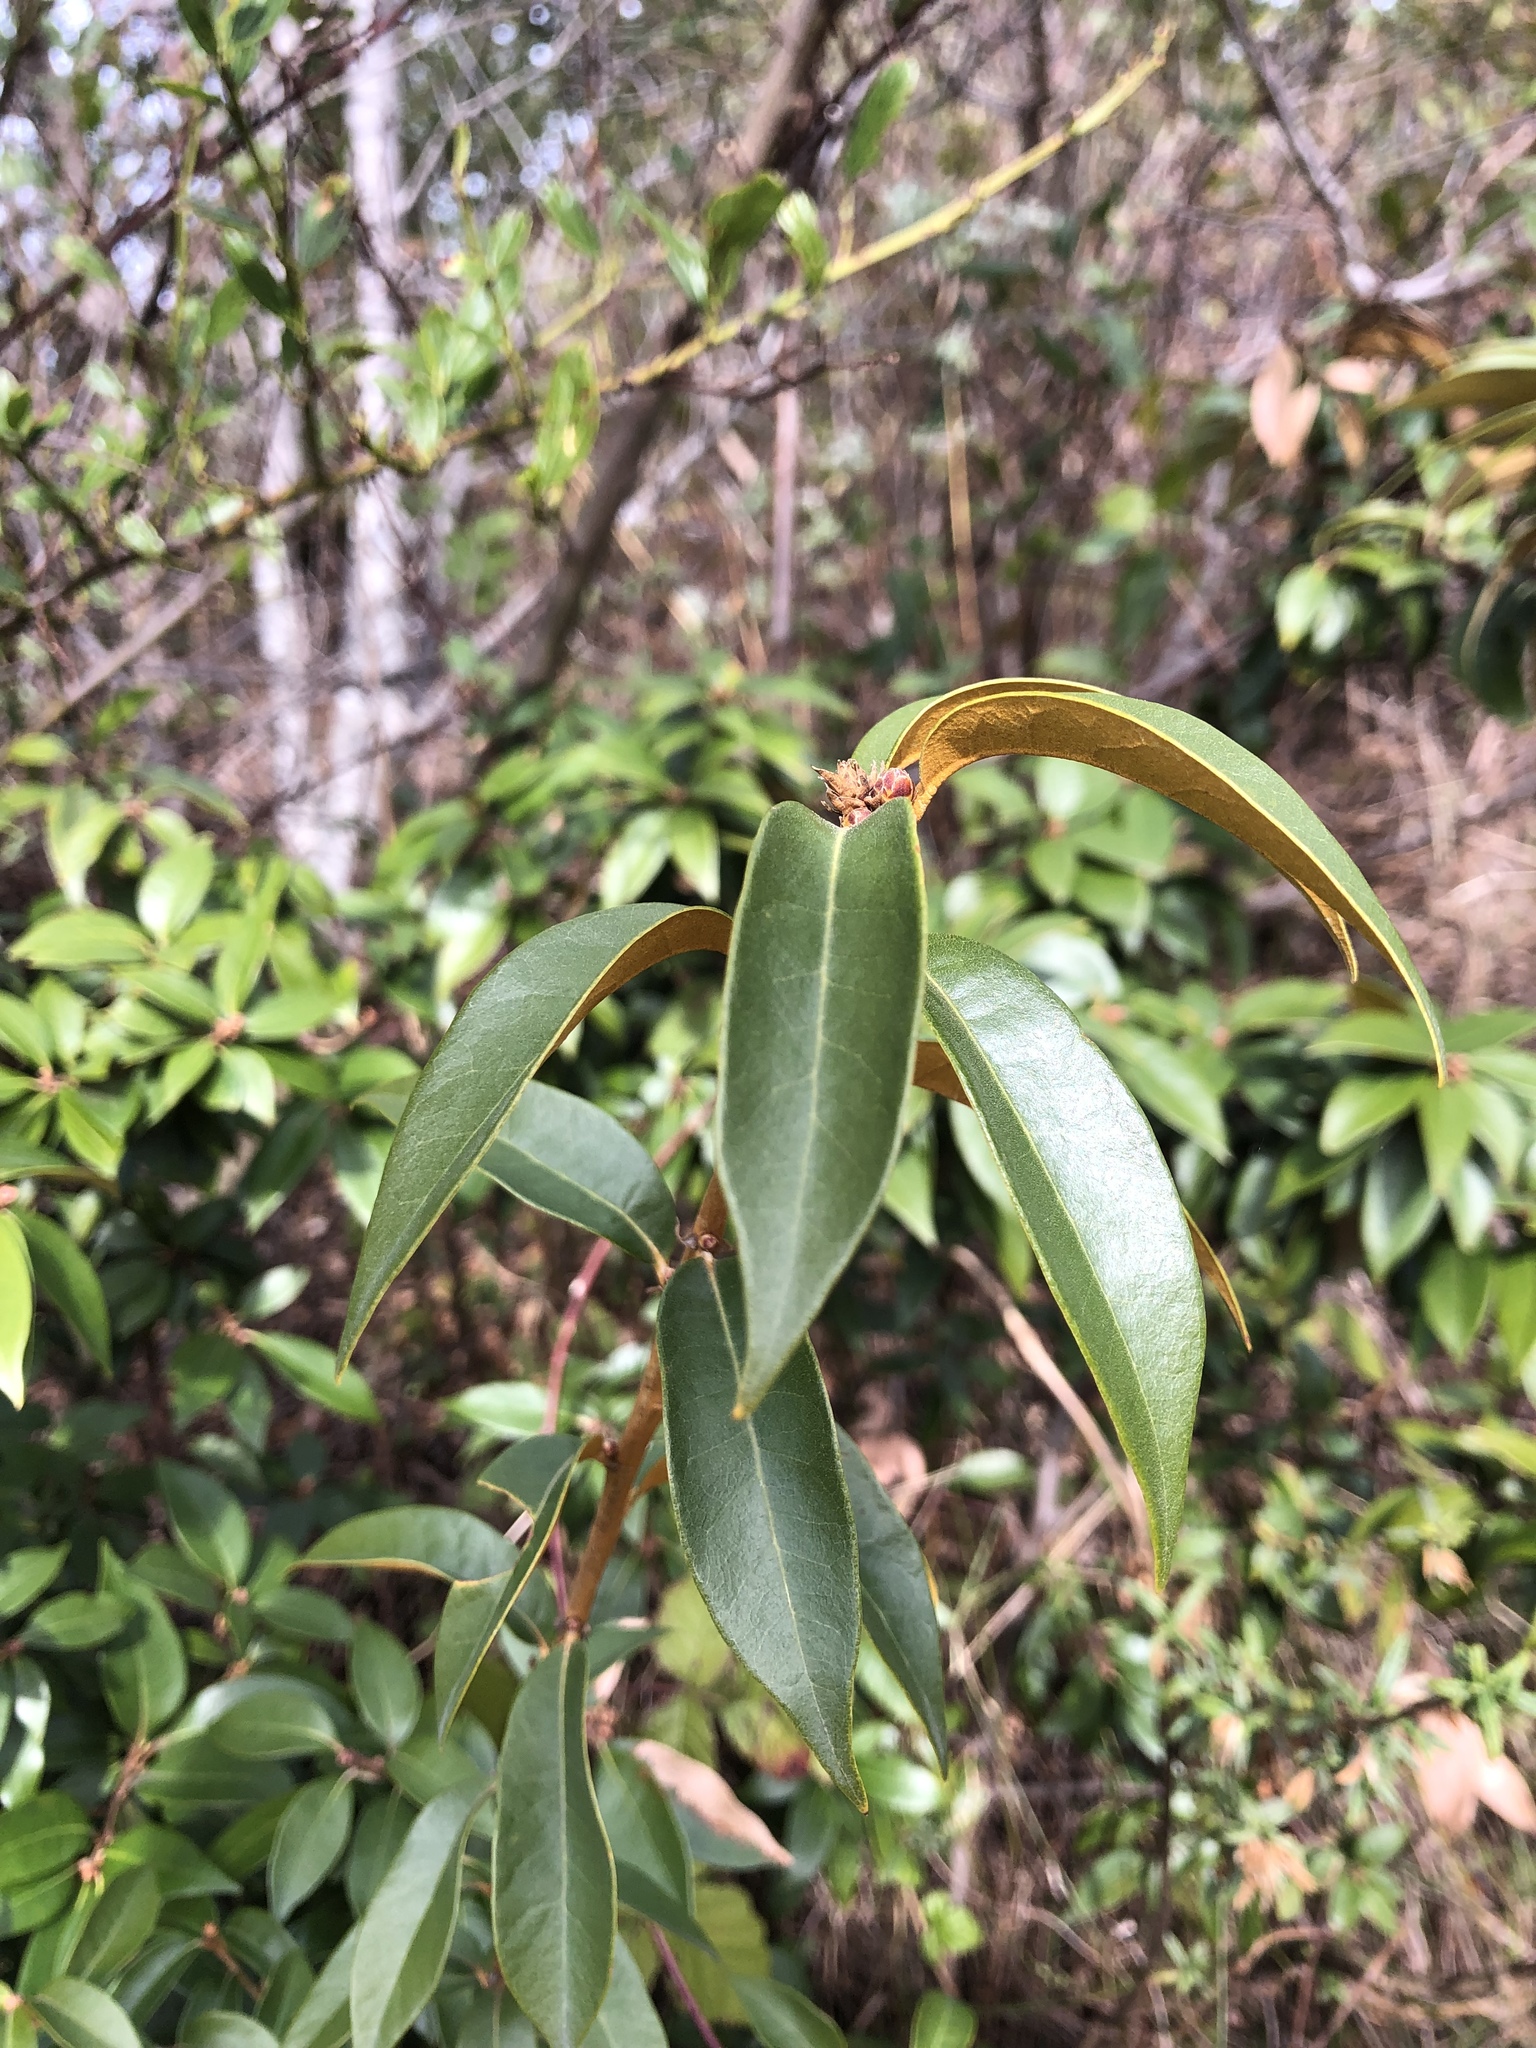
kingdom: Plantae
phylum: Tracheophyta
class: Magnoliopsida
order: Fagales
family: Fagaceae
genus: Chrysolepis
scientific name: Chrysolepis chrysophylla
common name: Giant chinquapin
